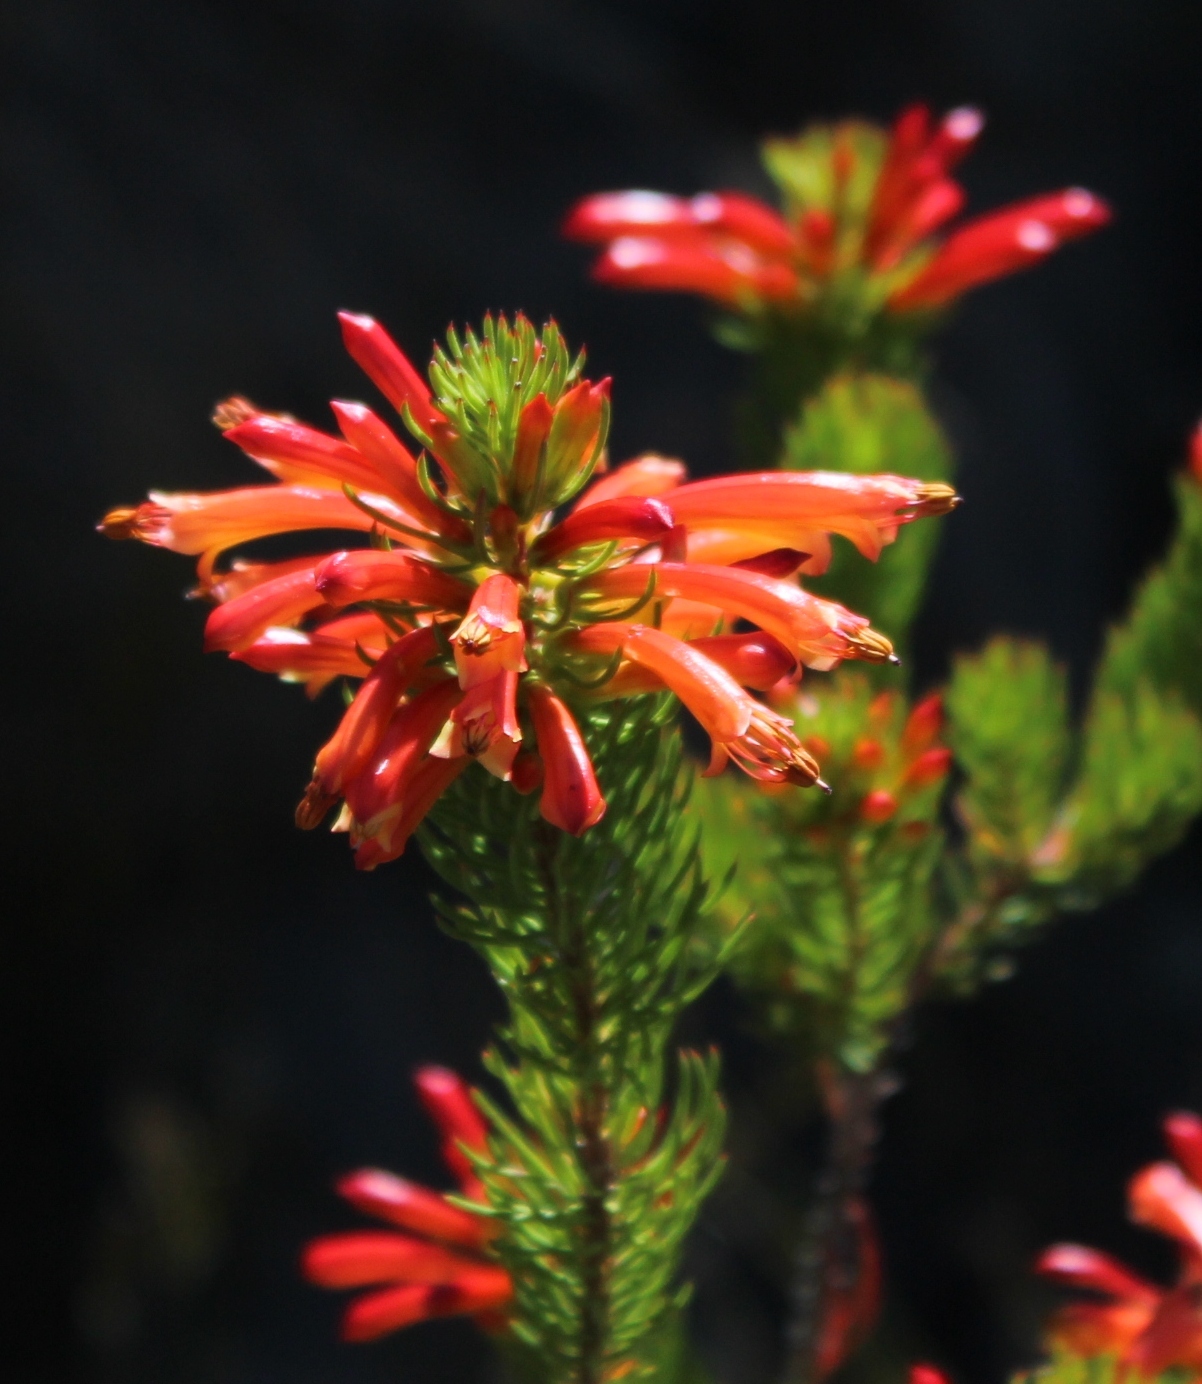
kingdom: Plantae
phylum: Tracheophyta
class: Magnoliopsida
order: Ericales
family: Ericaceae
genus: Erica
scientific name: Erica grandiflora
